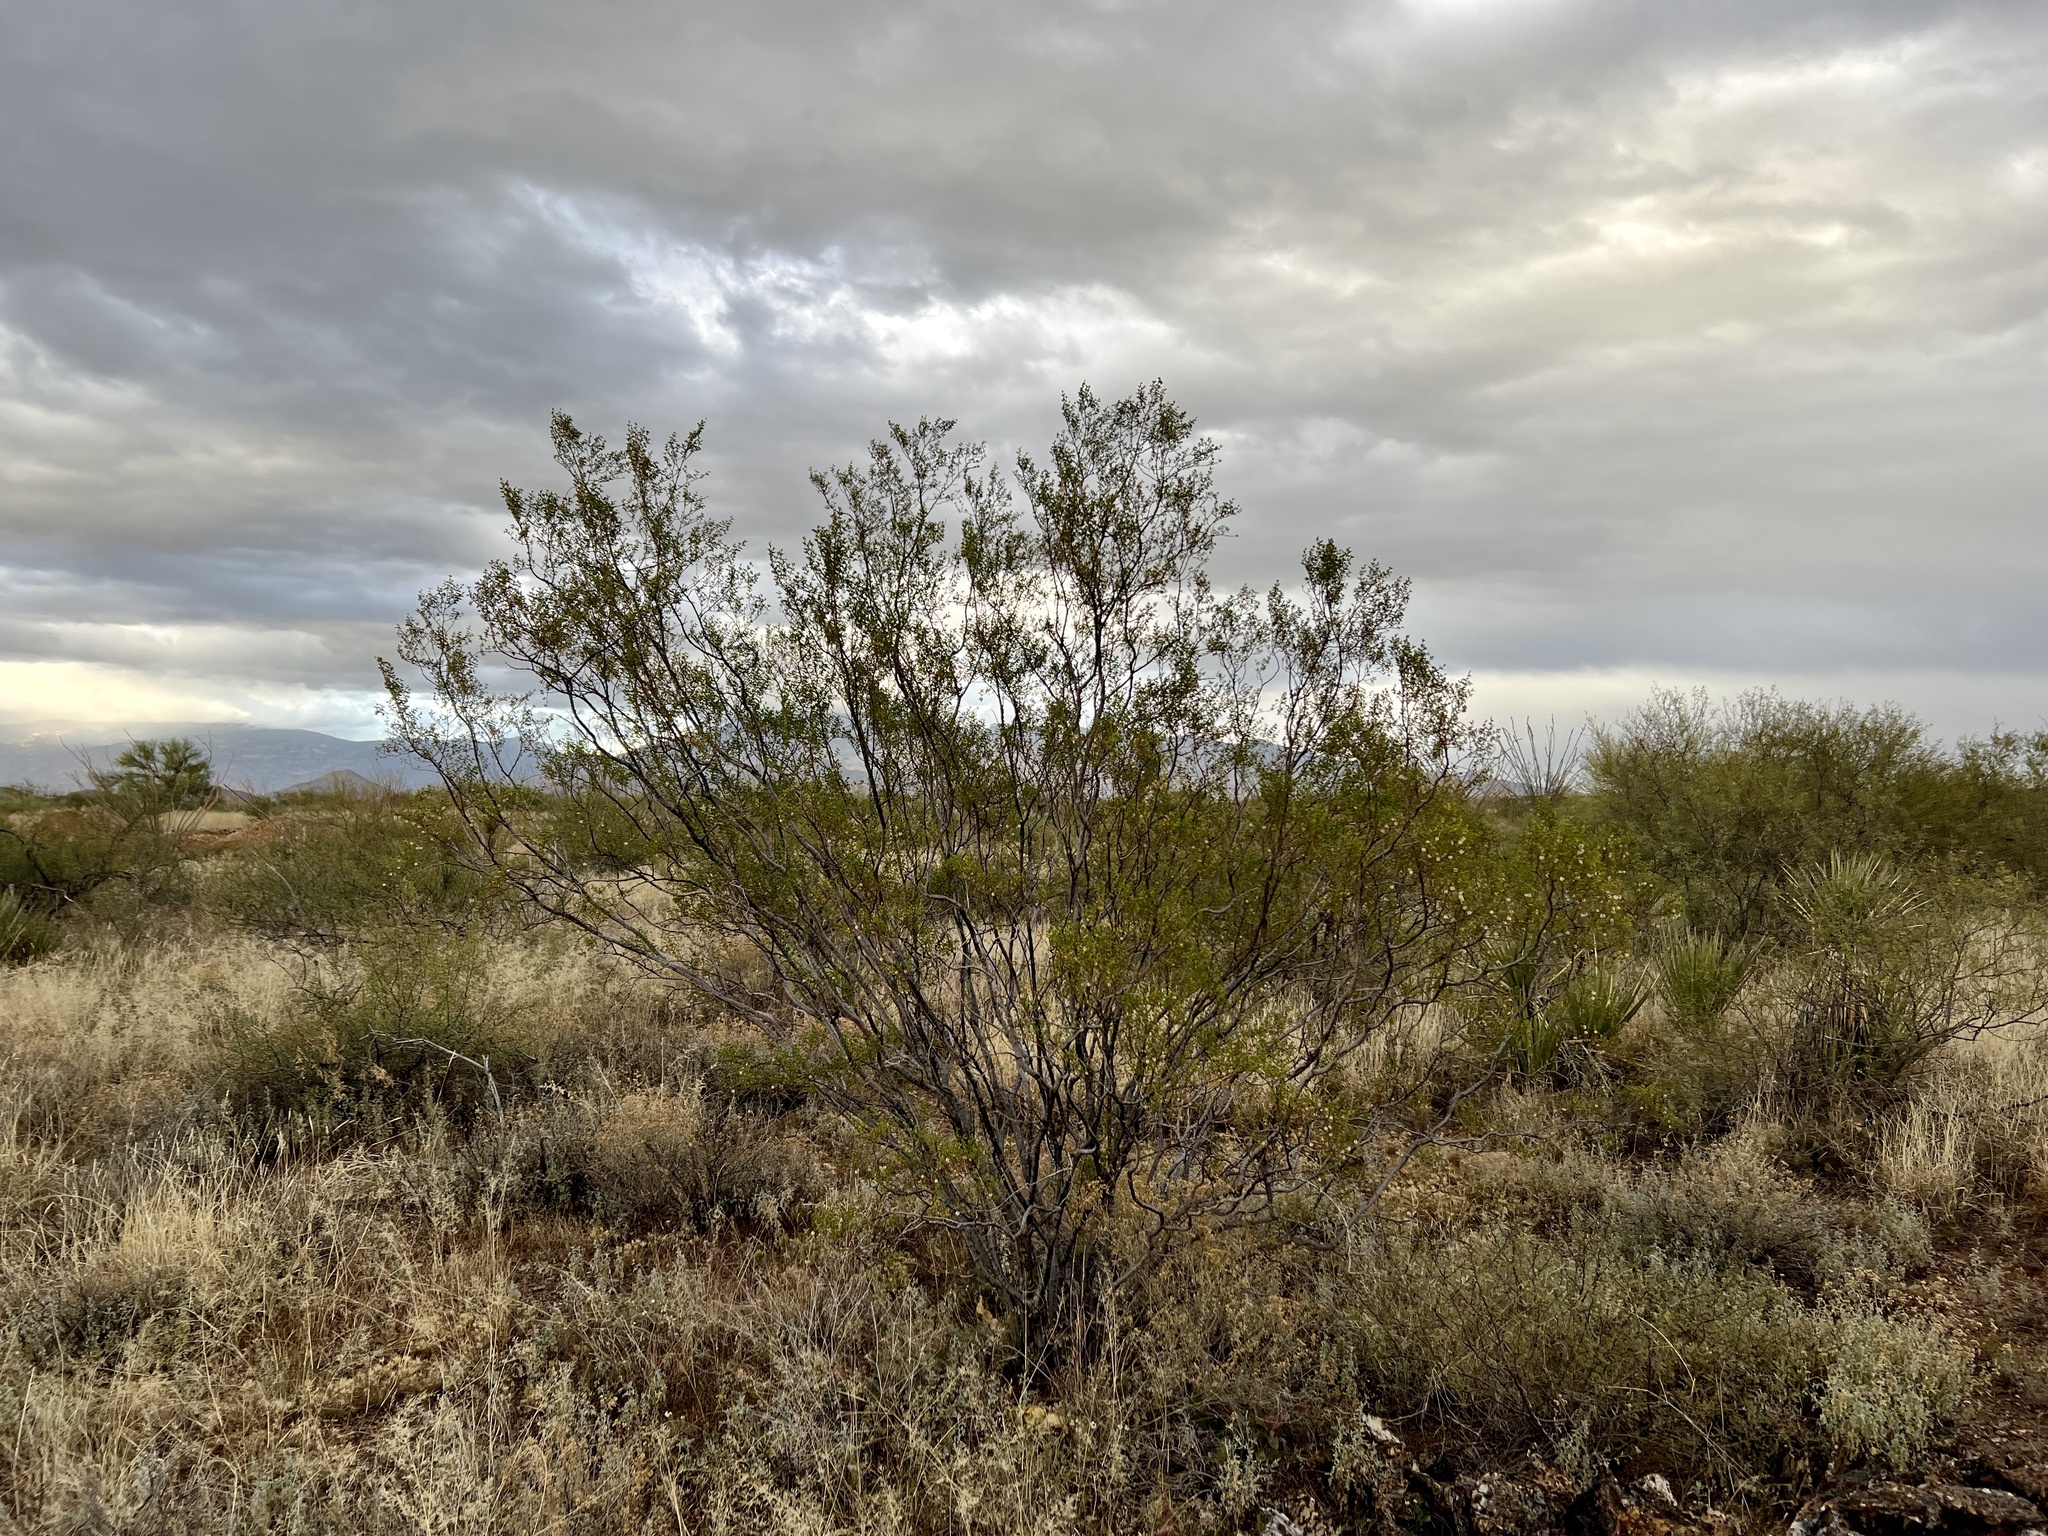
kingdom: Plantae
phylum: Tracheophyta
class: Magnoliopsida
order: Zygophyllales
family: Zygophyllaceae
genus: Larrea
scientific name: Larrea tridentata
